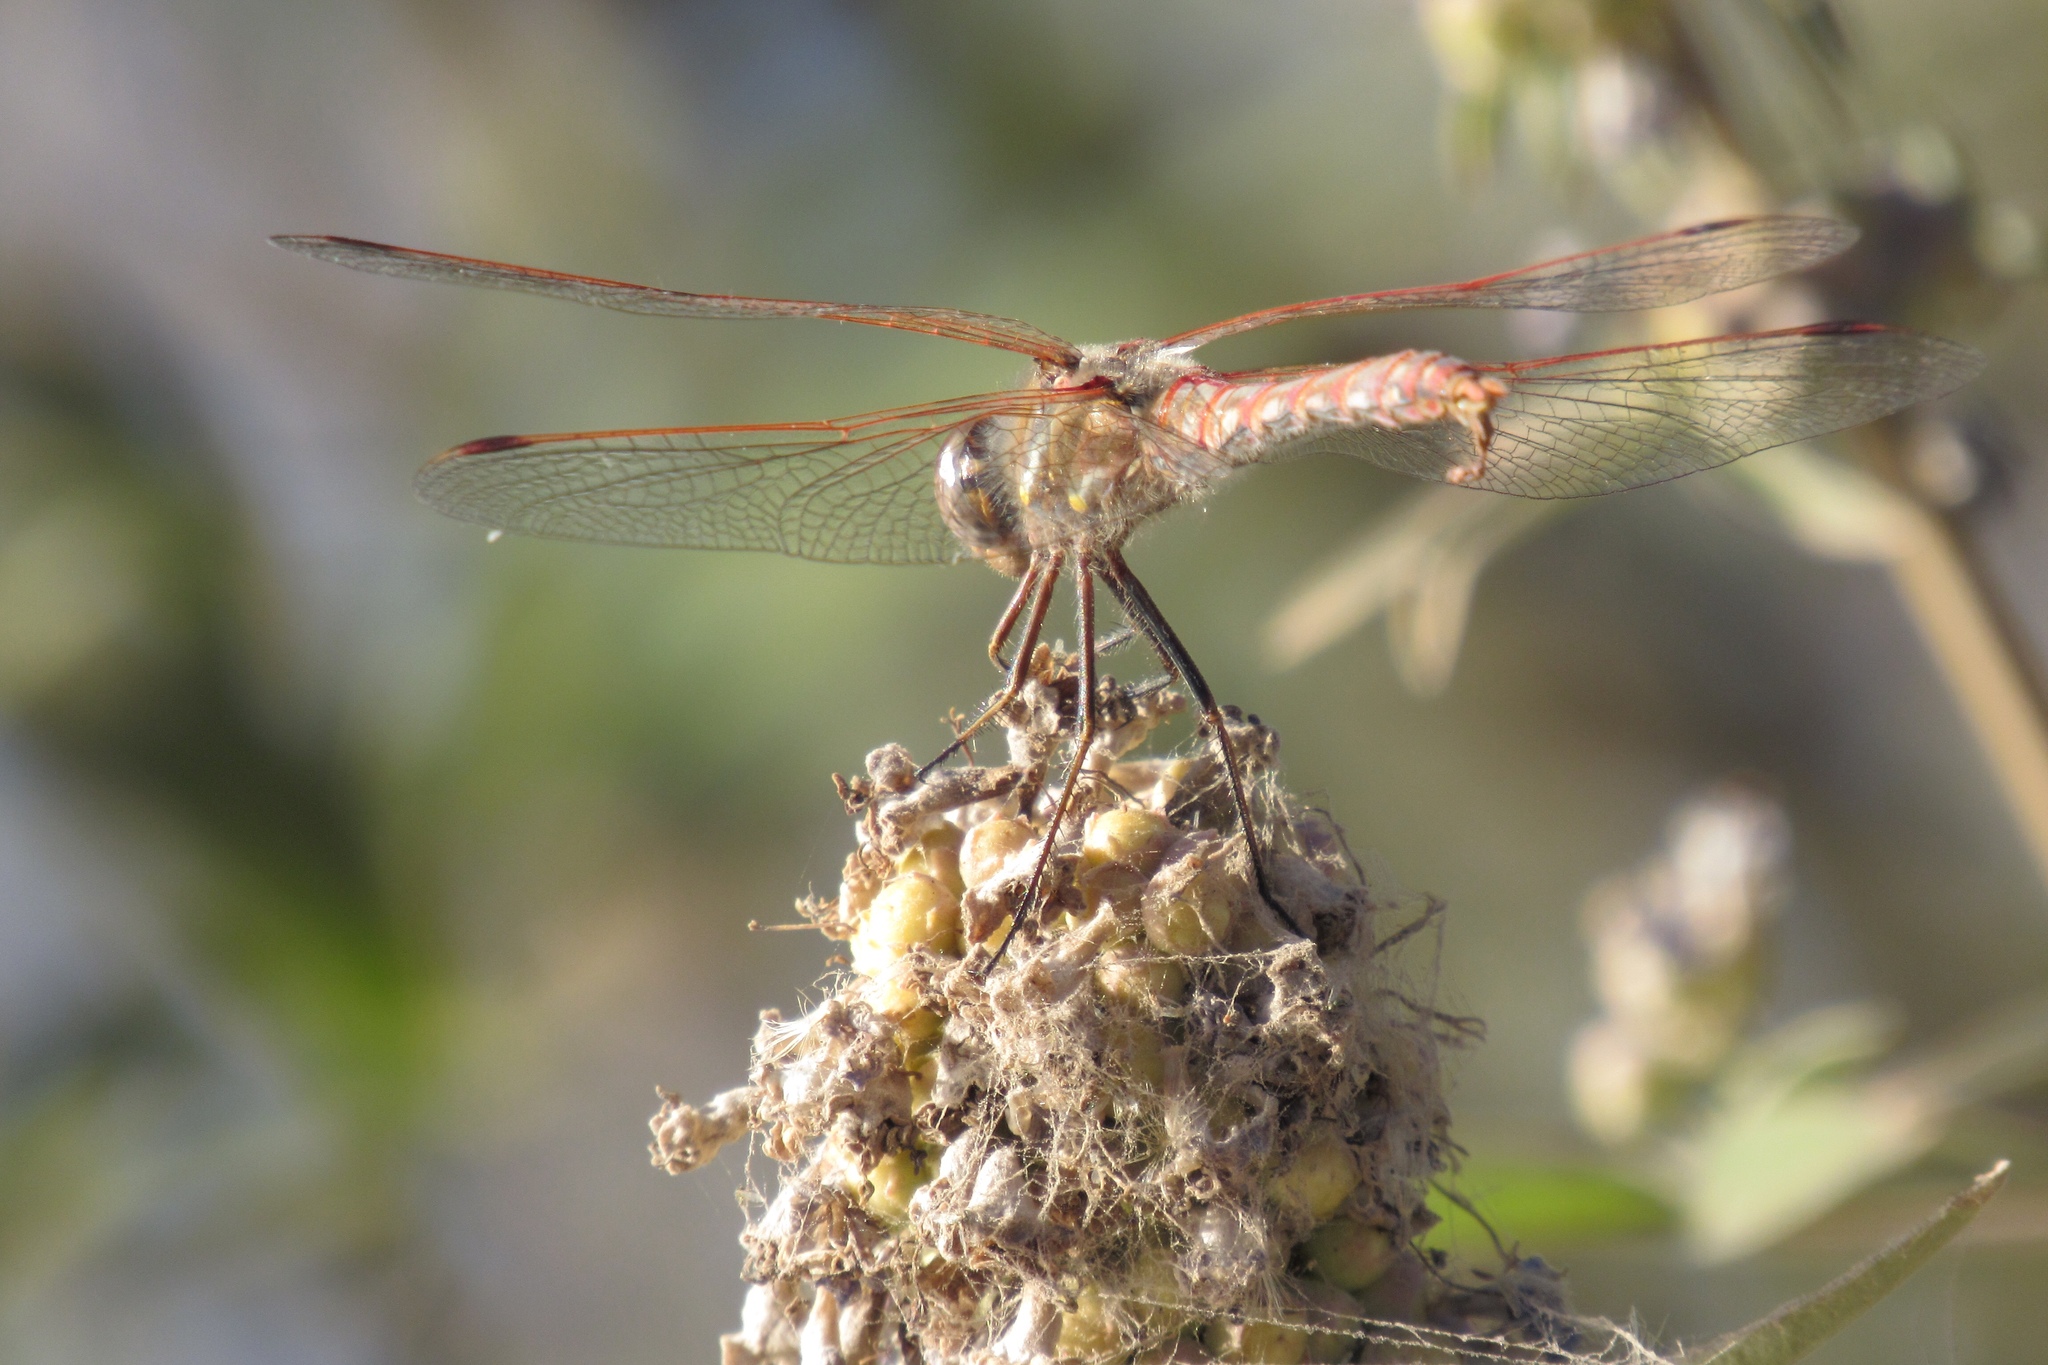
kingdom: Animalia
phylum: Arthropoda
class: Insecta
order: Odonata
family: Libellulidae
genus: Sympetrum
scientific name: Sympetrum corruptum
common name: Variegated meadowhawk
